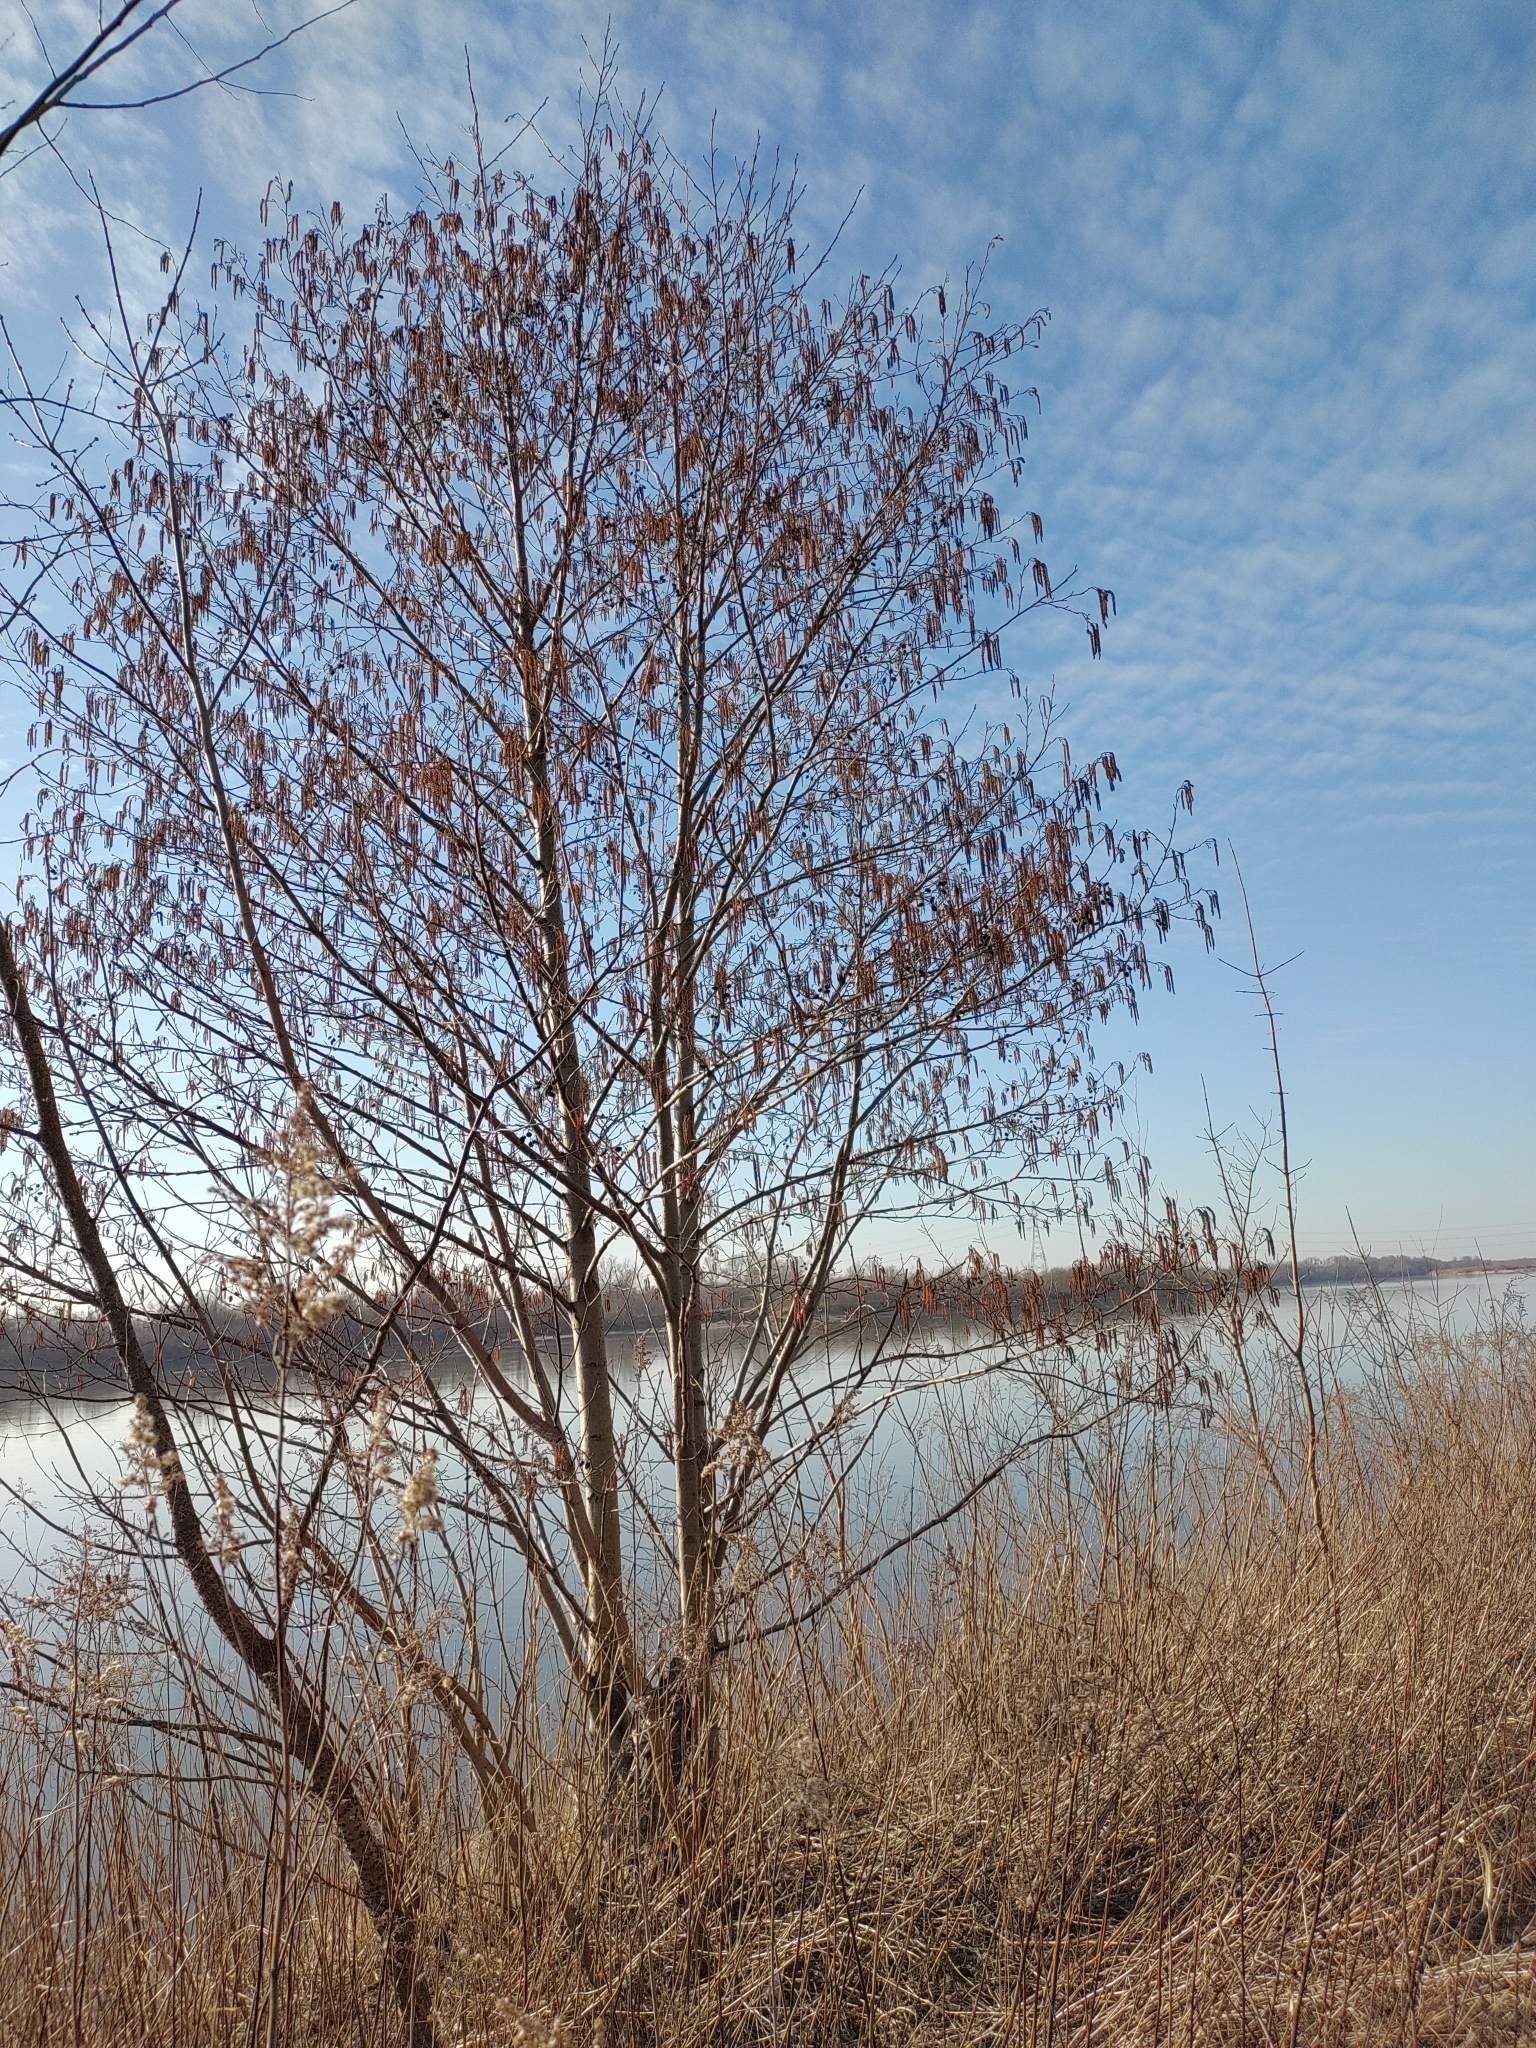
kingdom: Plantae
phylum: Tracheophyta
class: Magnoliopsida
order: Fagales
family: Betulaceae
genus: Alnus
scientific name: Alnus glutinosa
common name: Black alder
